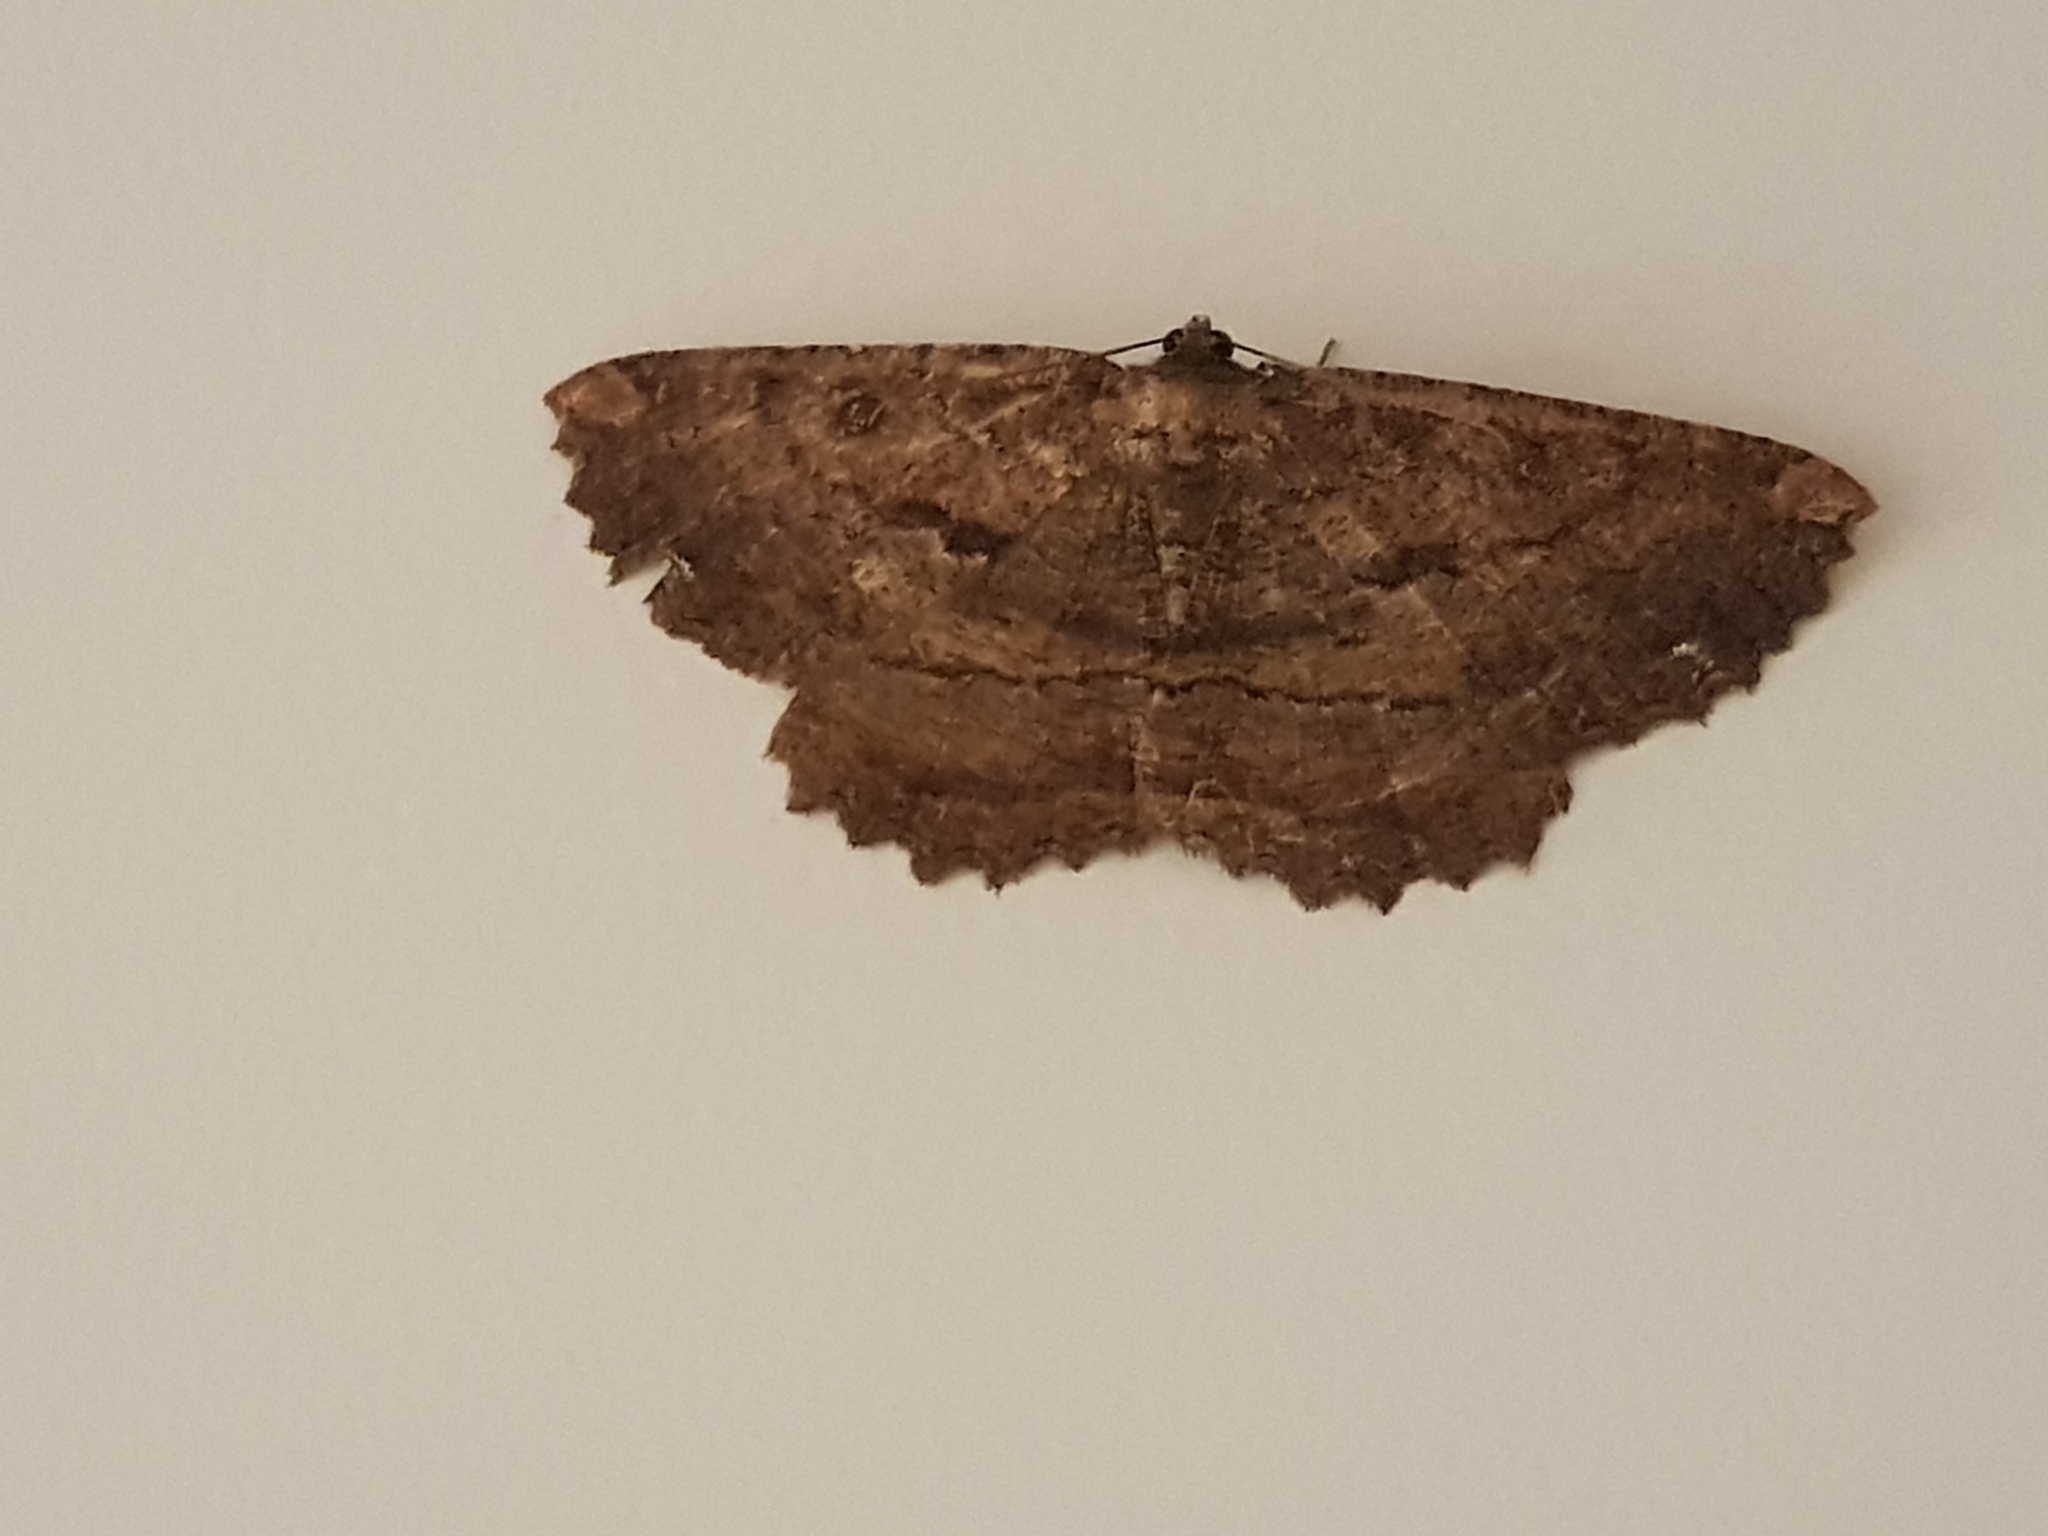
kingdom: Animalia
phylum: Arthropoda
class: Insecta
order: Lepidoptera
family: Geometridae
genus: Gellonia
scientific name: Gellonia dejectaria
